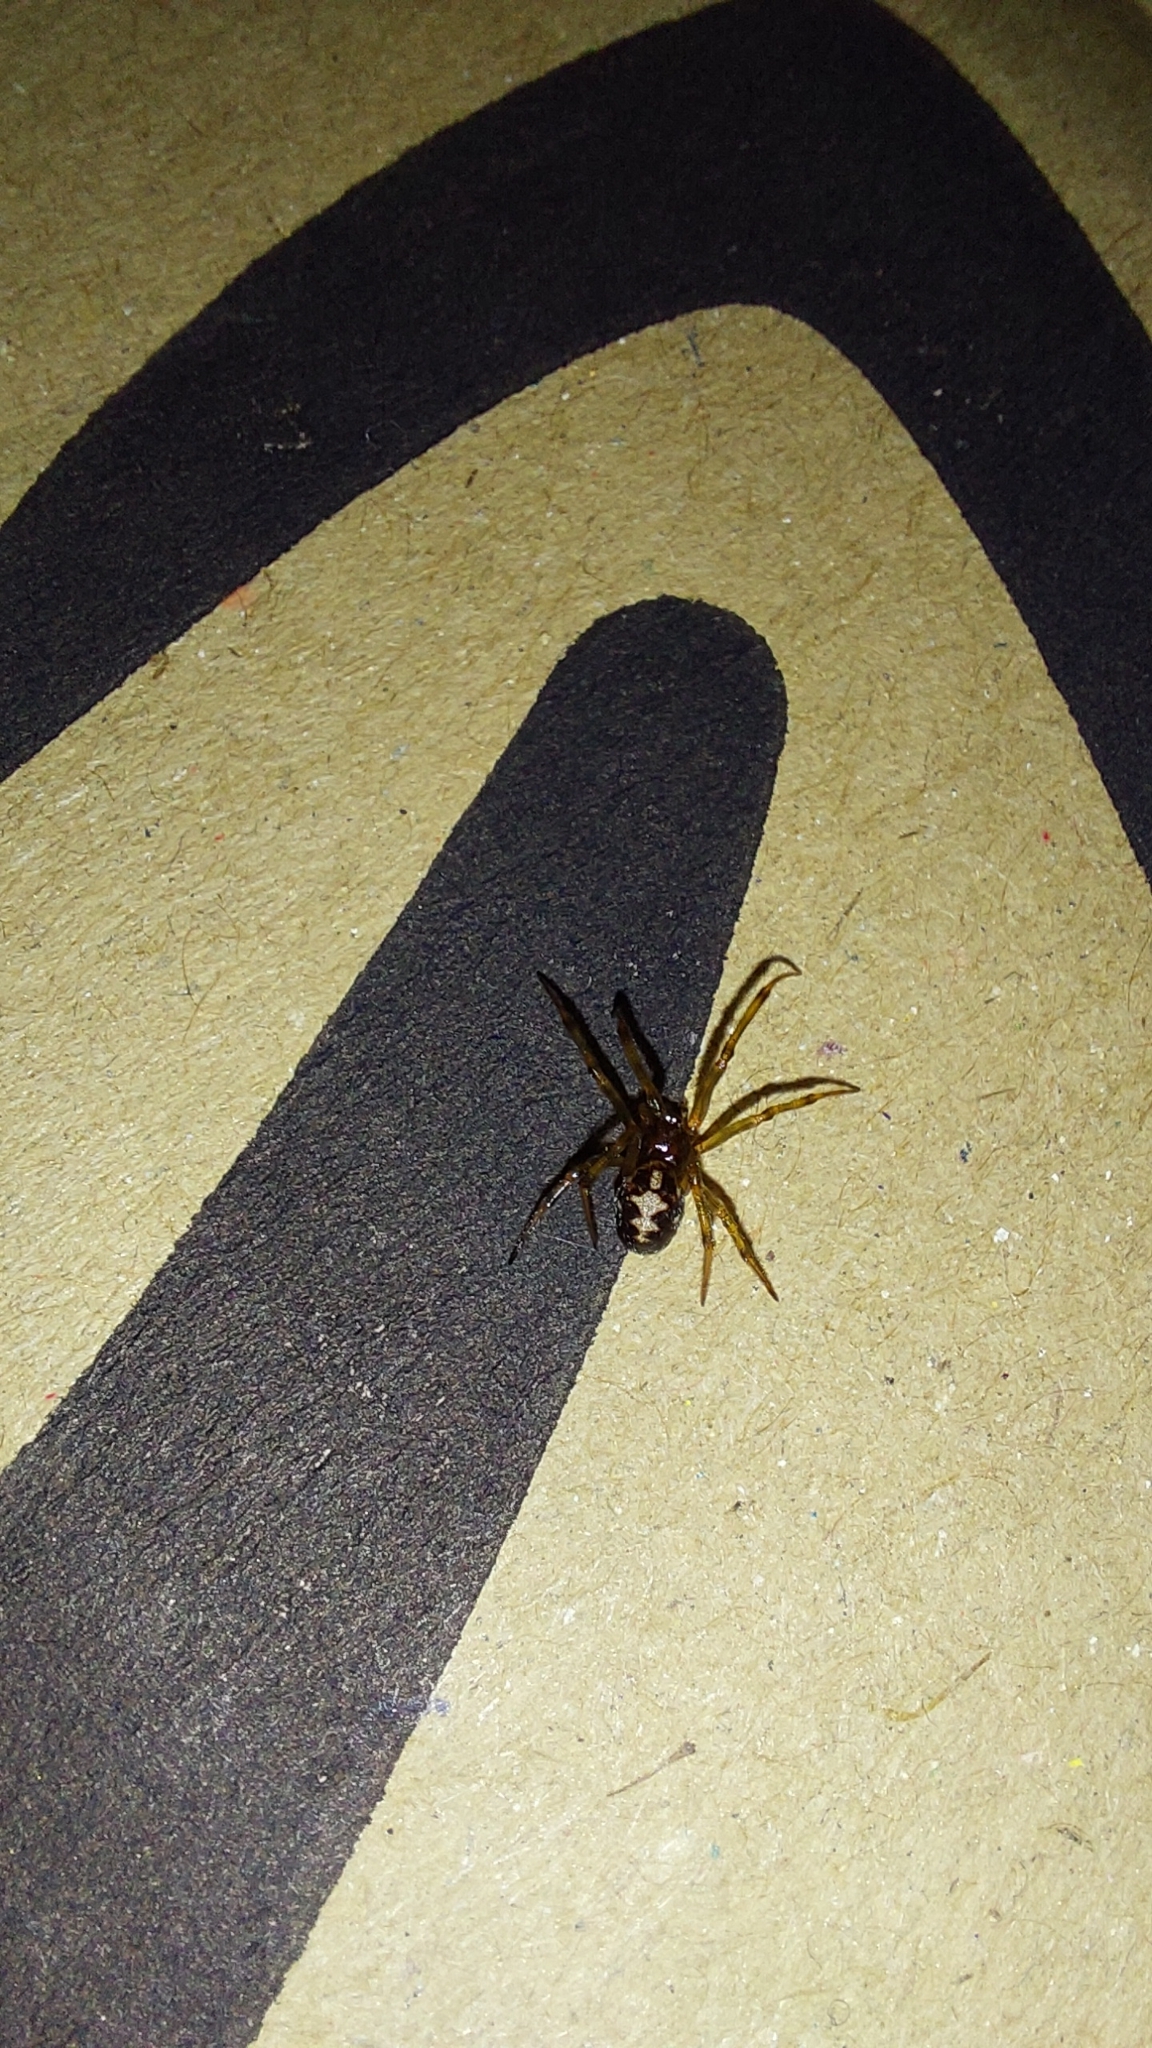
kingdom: Animalia
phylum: Arthropoda
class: Arachnida
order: Araneae
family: Theridiidae
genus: Steatoda
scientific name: Steatoda triangulosa
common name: Triangulate bud spider
